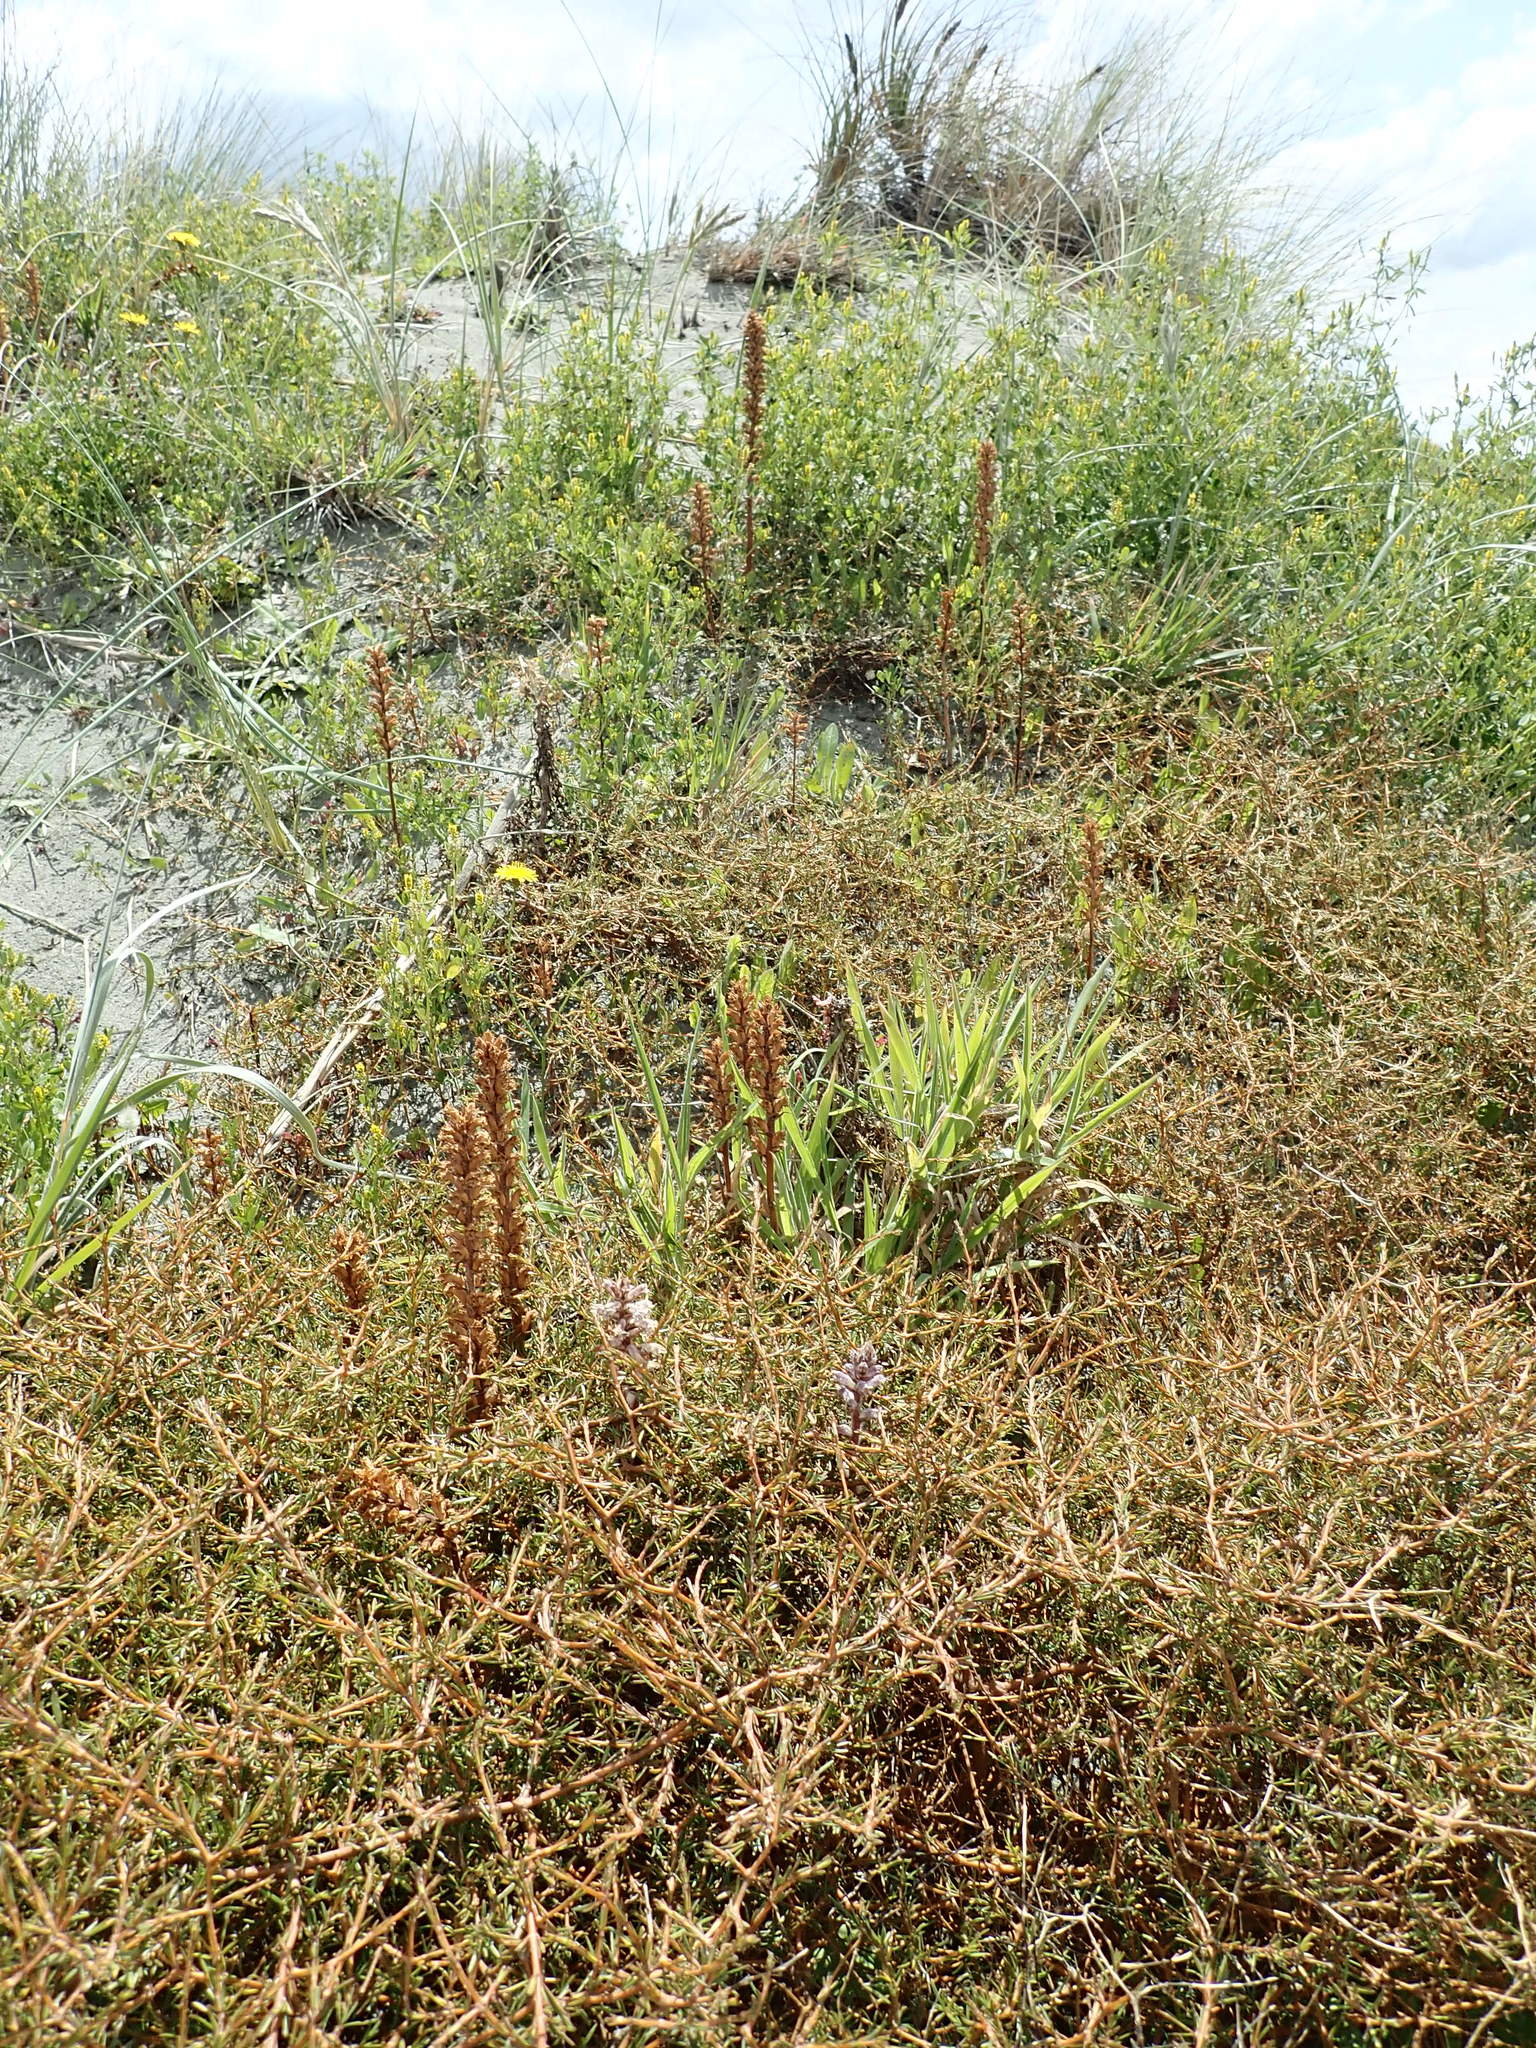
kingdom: Plantae
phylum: Tracheophyta
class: Magnoliopsida
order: Lamiales
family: Orobanchaceae
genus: Orobanche
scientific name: Orobanche minor
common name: Common broomrape
